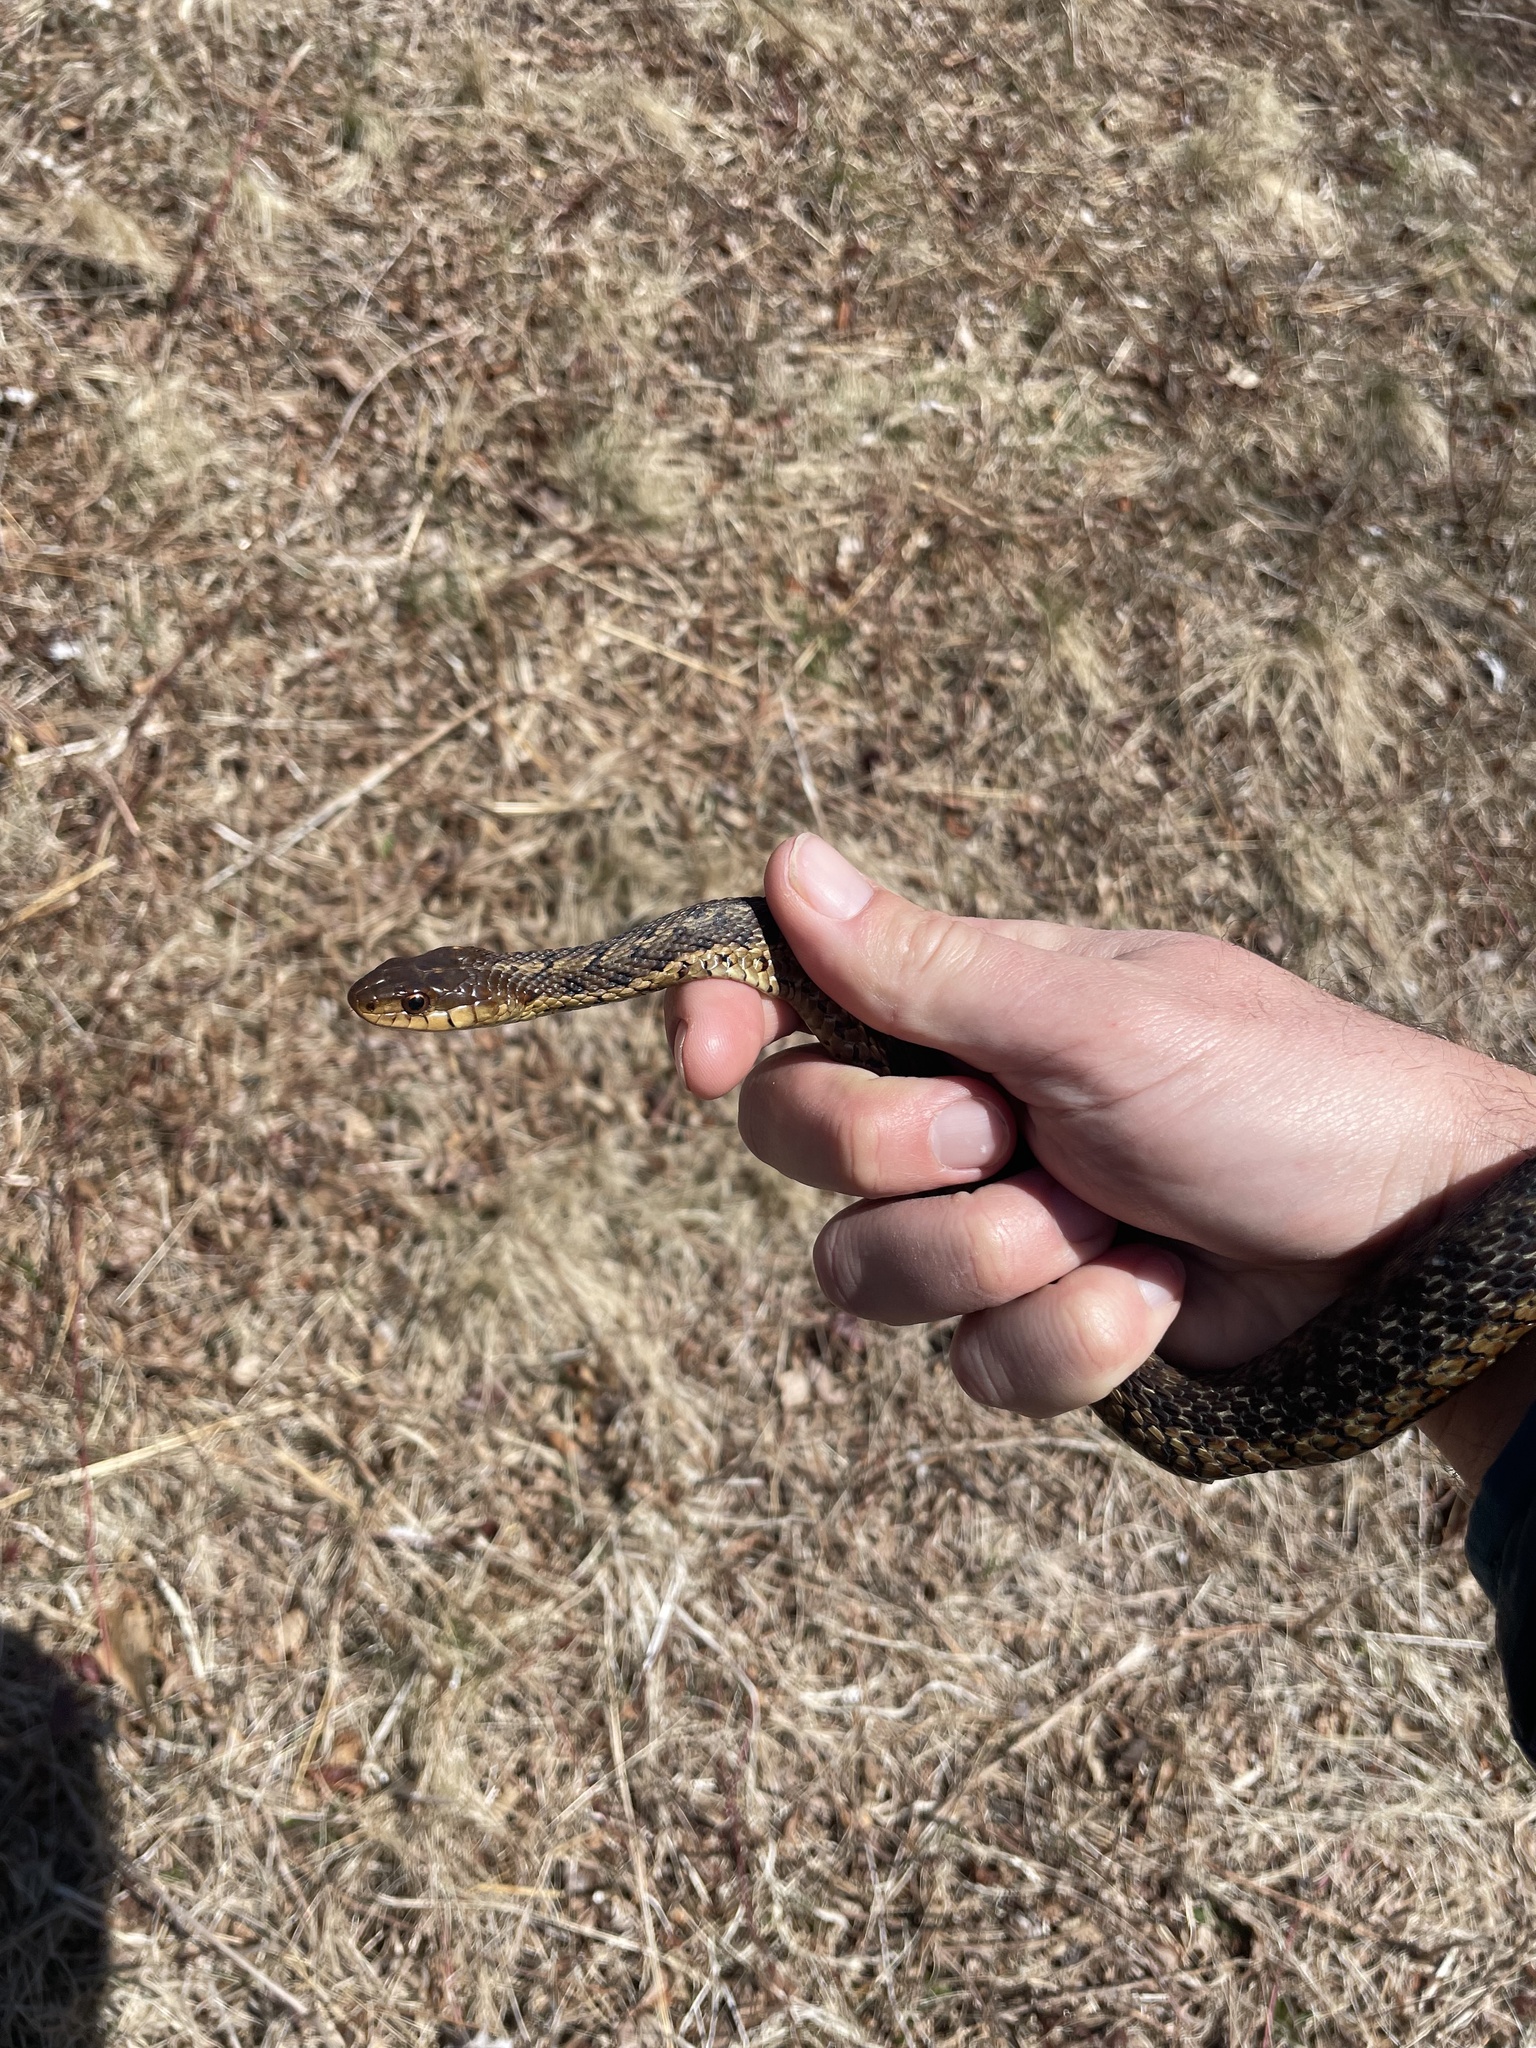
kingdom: Animalia
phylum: Chordata
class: Squamata
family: Colubridae
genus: Thamnophis
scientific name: Thamnophis sirtalis
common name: Common garter snake
